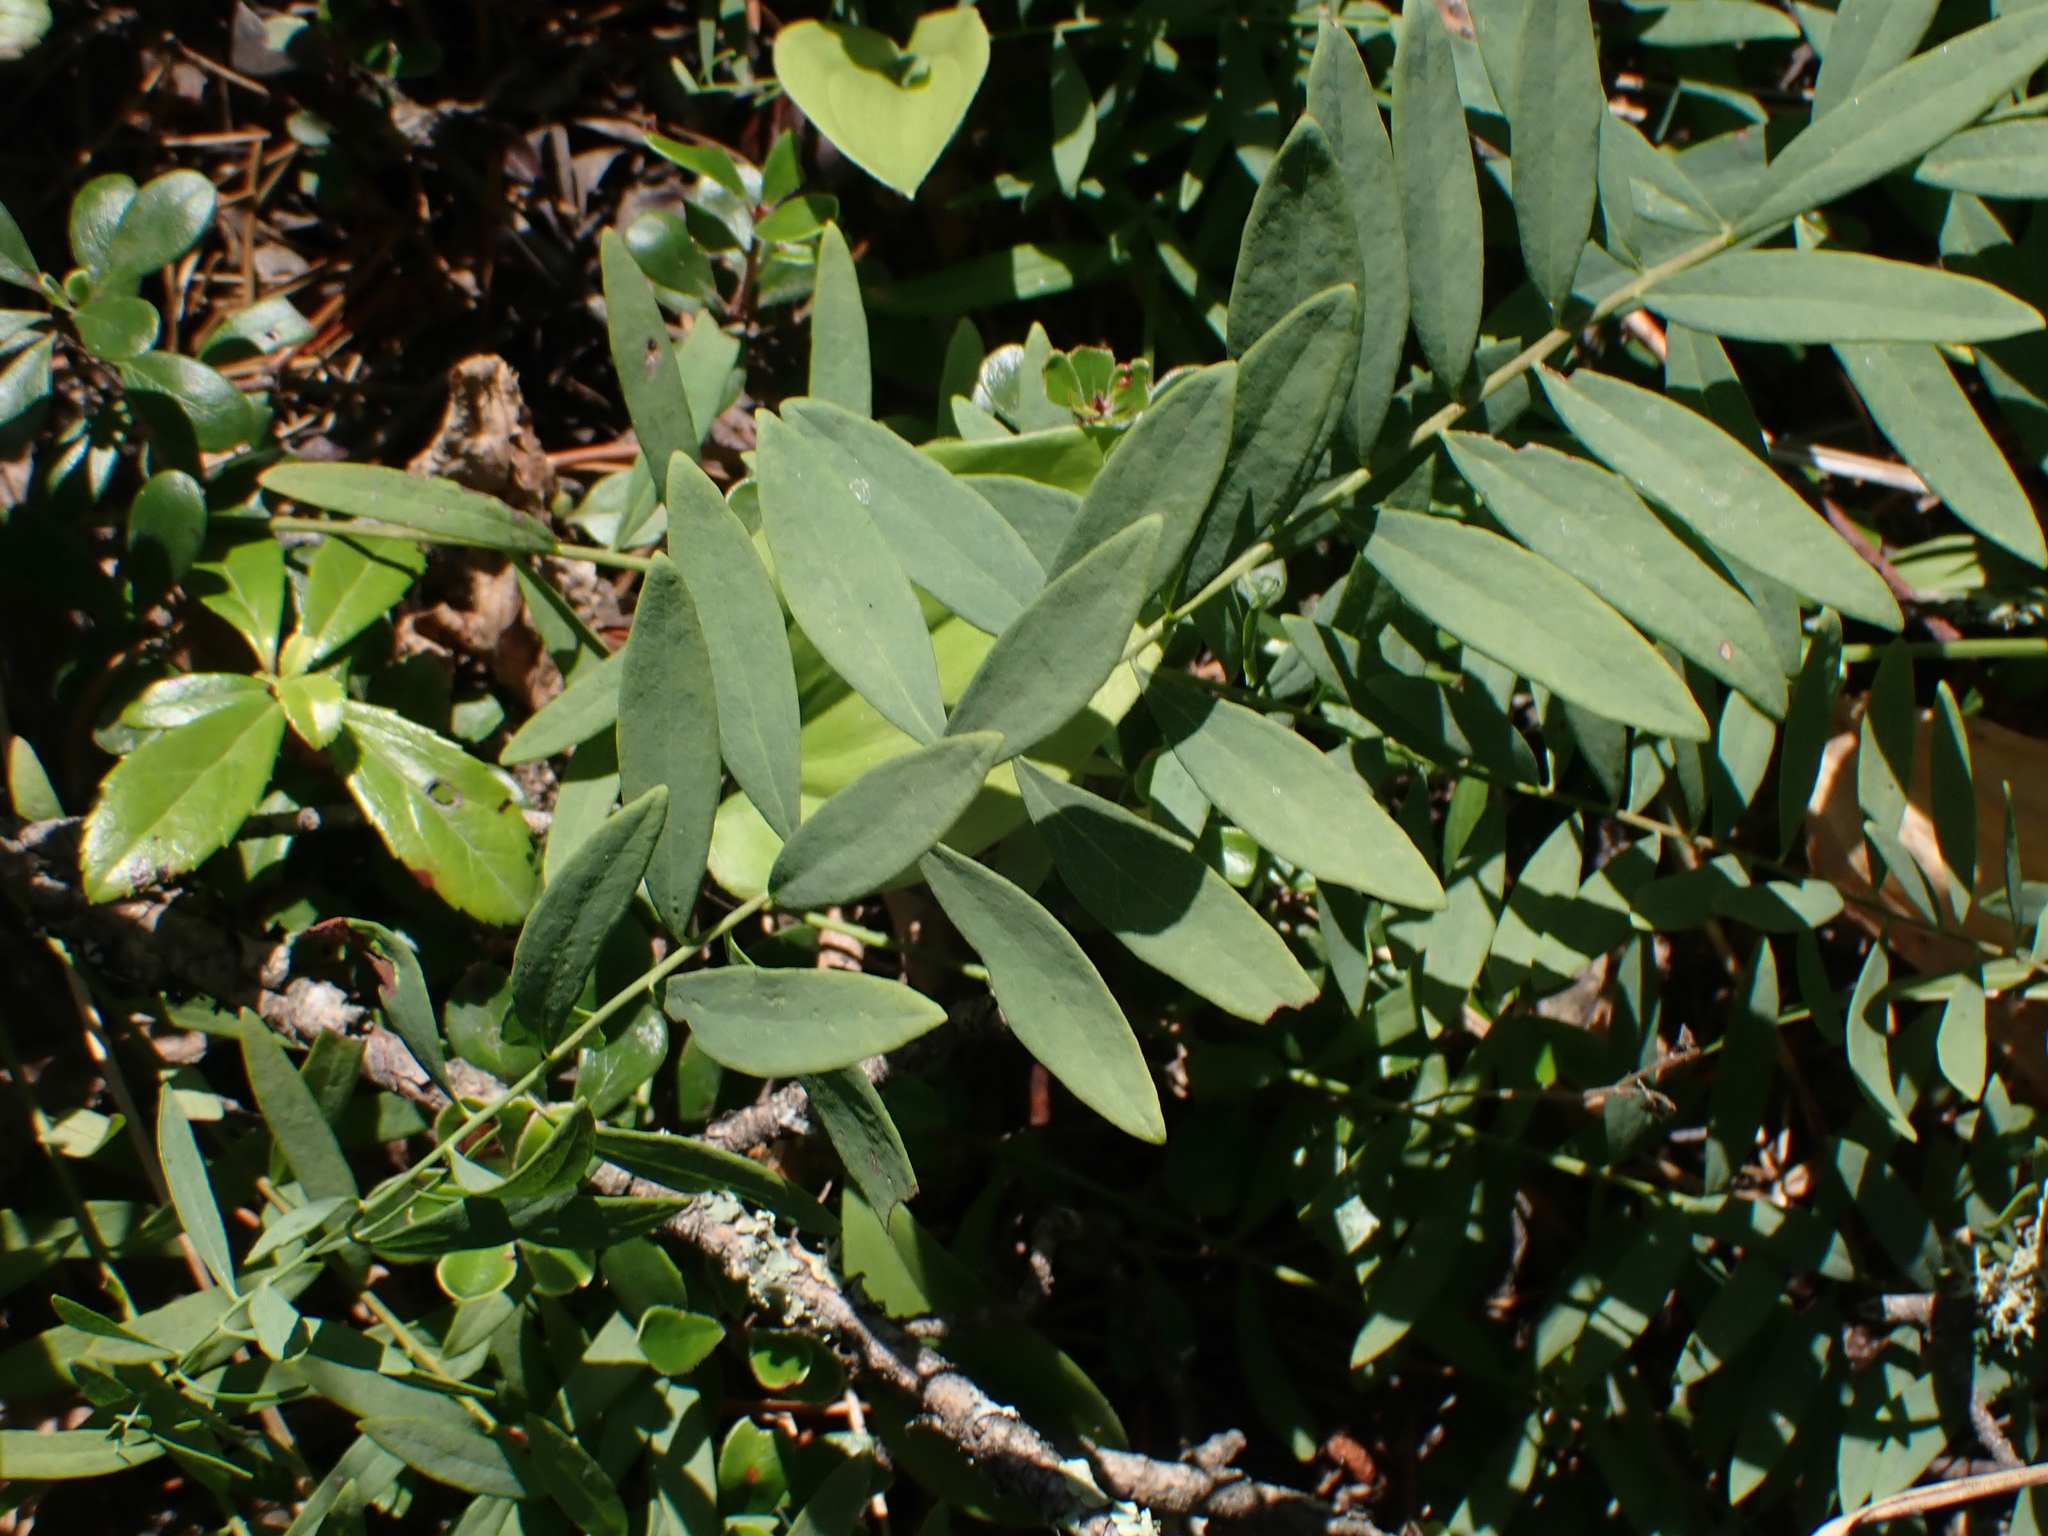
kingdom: Plantae
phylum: Tracheophyta
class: Magnoliopsida
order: Santalales
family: Comandraceae
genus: Comandra
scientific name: Comandra umbellata
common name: Bastard toadflax
